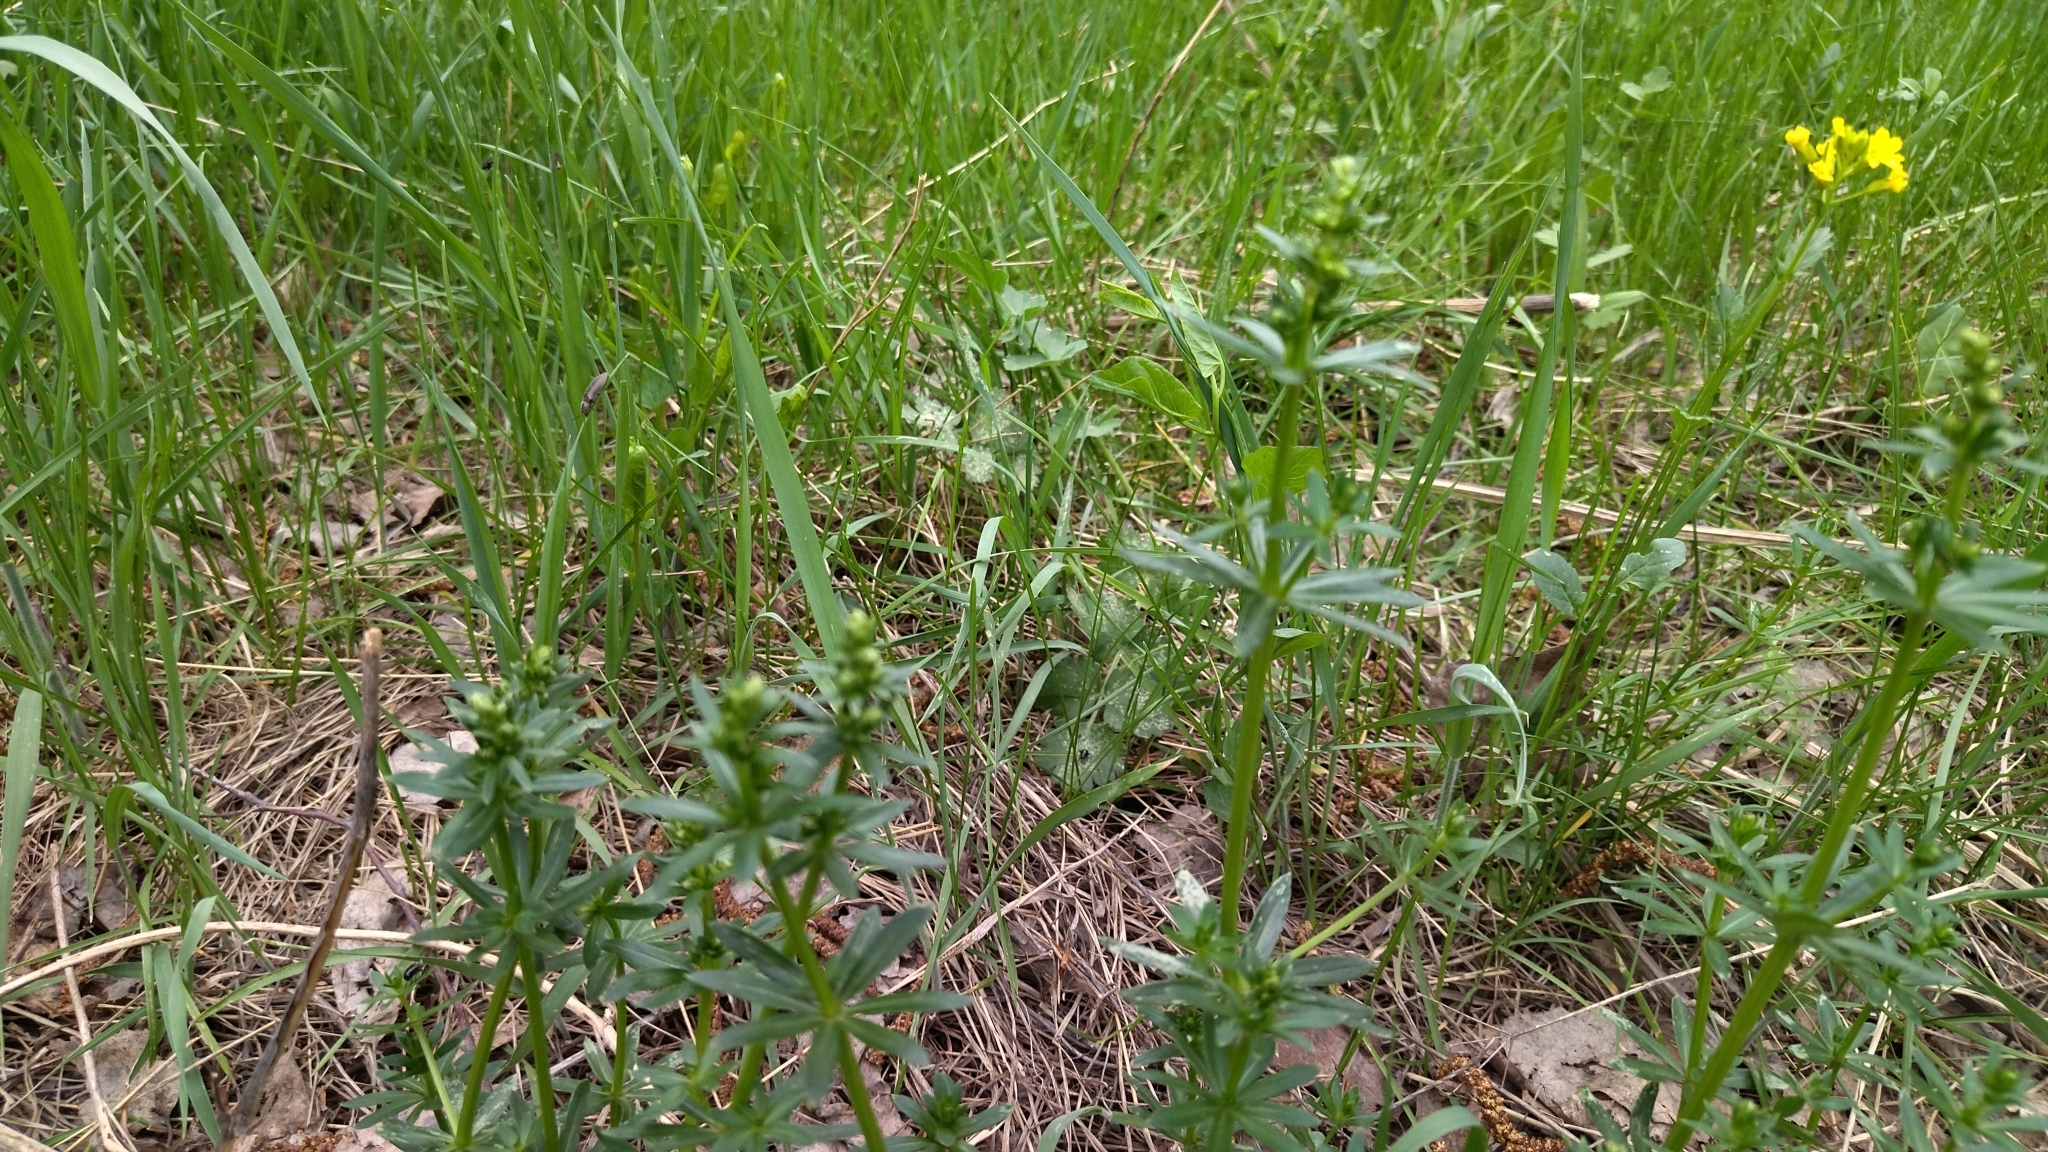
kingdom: Plantae
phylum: Tracheophyta
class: Magnoliopsida
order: Gentianales
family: Rubiaceae
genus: Galium
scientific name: Galium mollugo
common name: Hedge bedstraw
